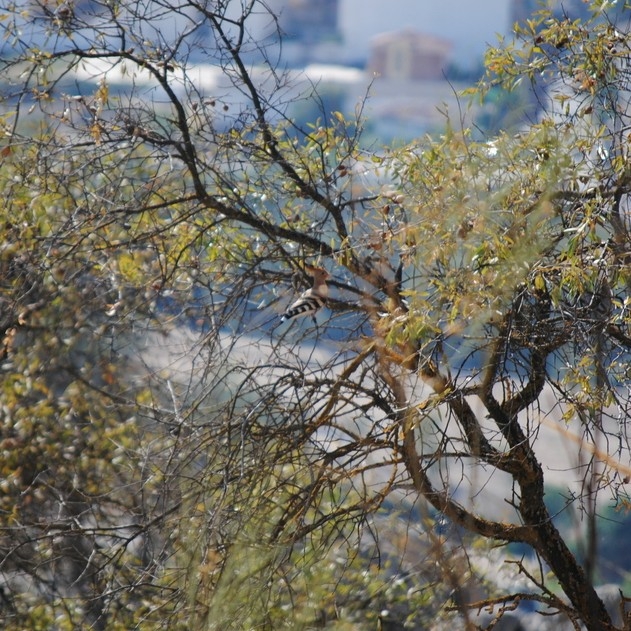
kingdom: Animalia
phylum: Chordata
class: Aves
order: Bucerotiformes
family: Upupidae
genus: Upupa
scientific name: Upupa epops
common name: Eurasian hoopoe
